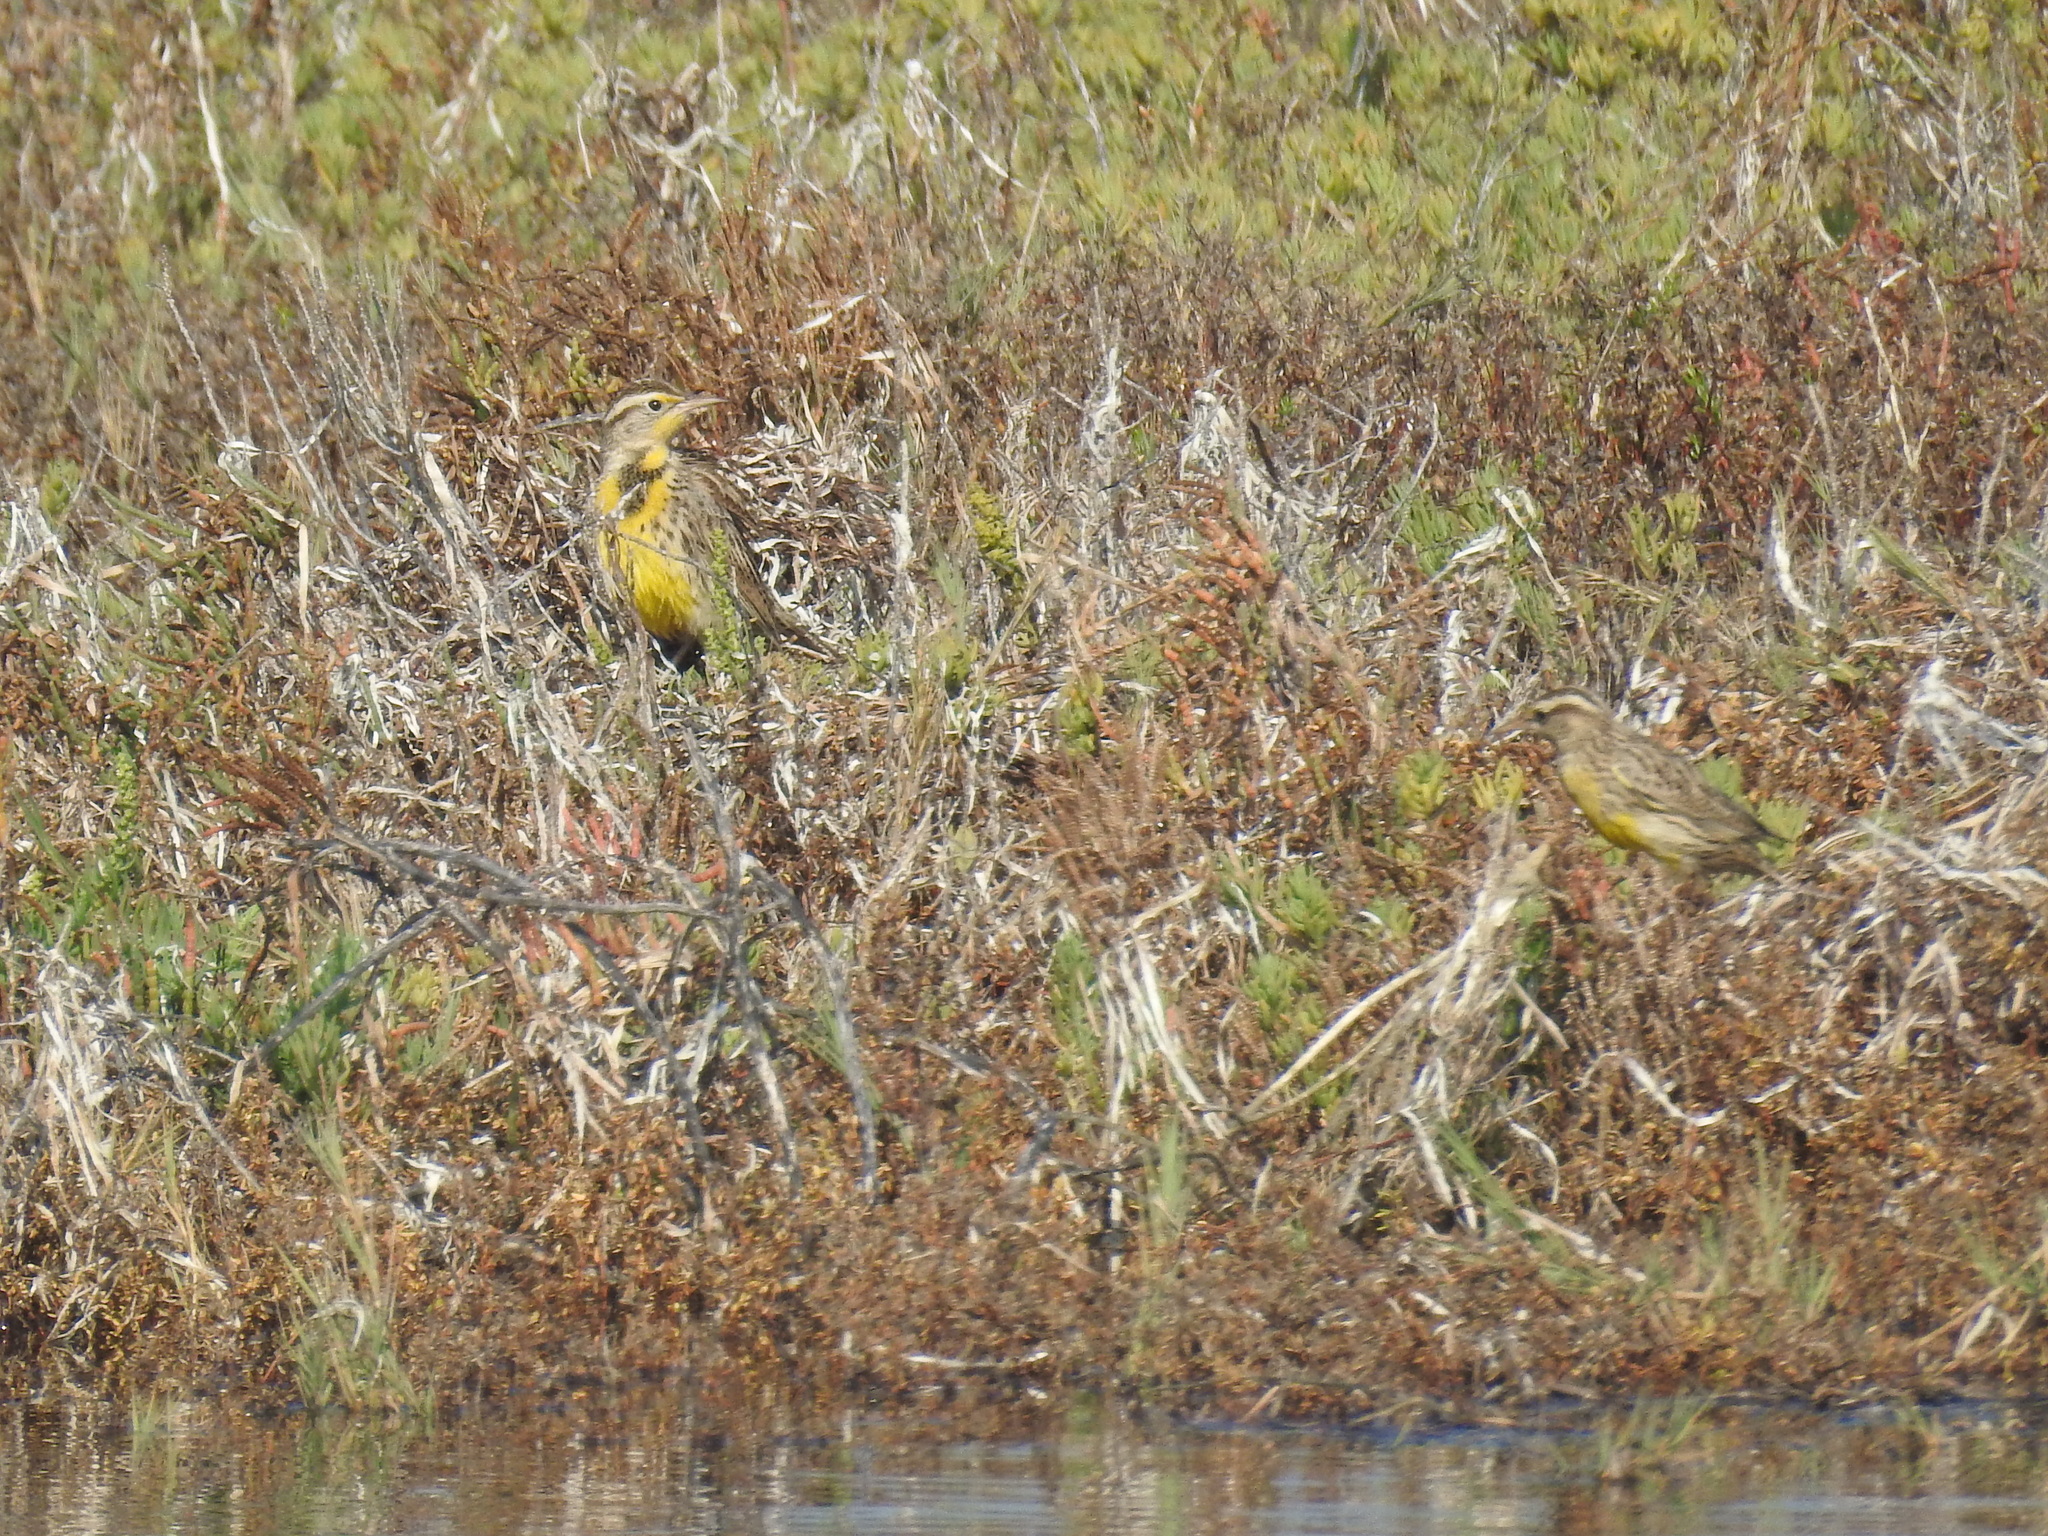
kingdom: Animalia
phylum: Chordata
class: Aves
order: Passeriformes
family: Icteridae
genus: Sturnella
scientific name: Sturnella neglecta
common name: Western meadowlark
